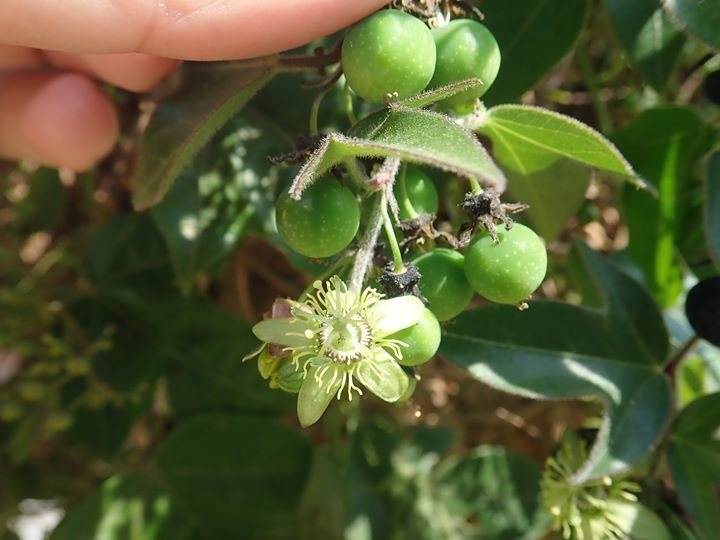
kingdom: Plantae
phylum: Tracheophyta
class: Magnoliopsida
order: Malpighiales
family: Passifloraceae
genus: Passiflora
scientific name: Passiflora suberosa
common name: Wild passionfruit
